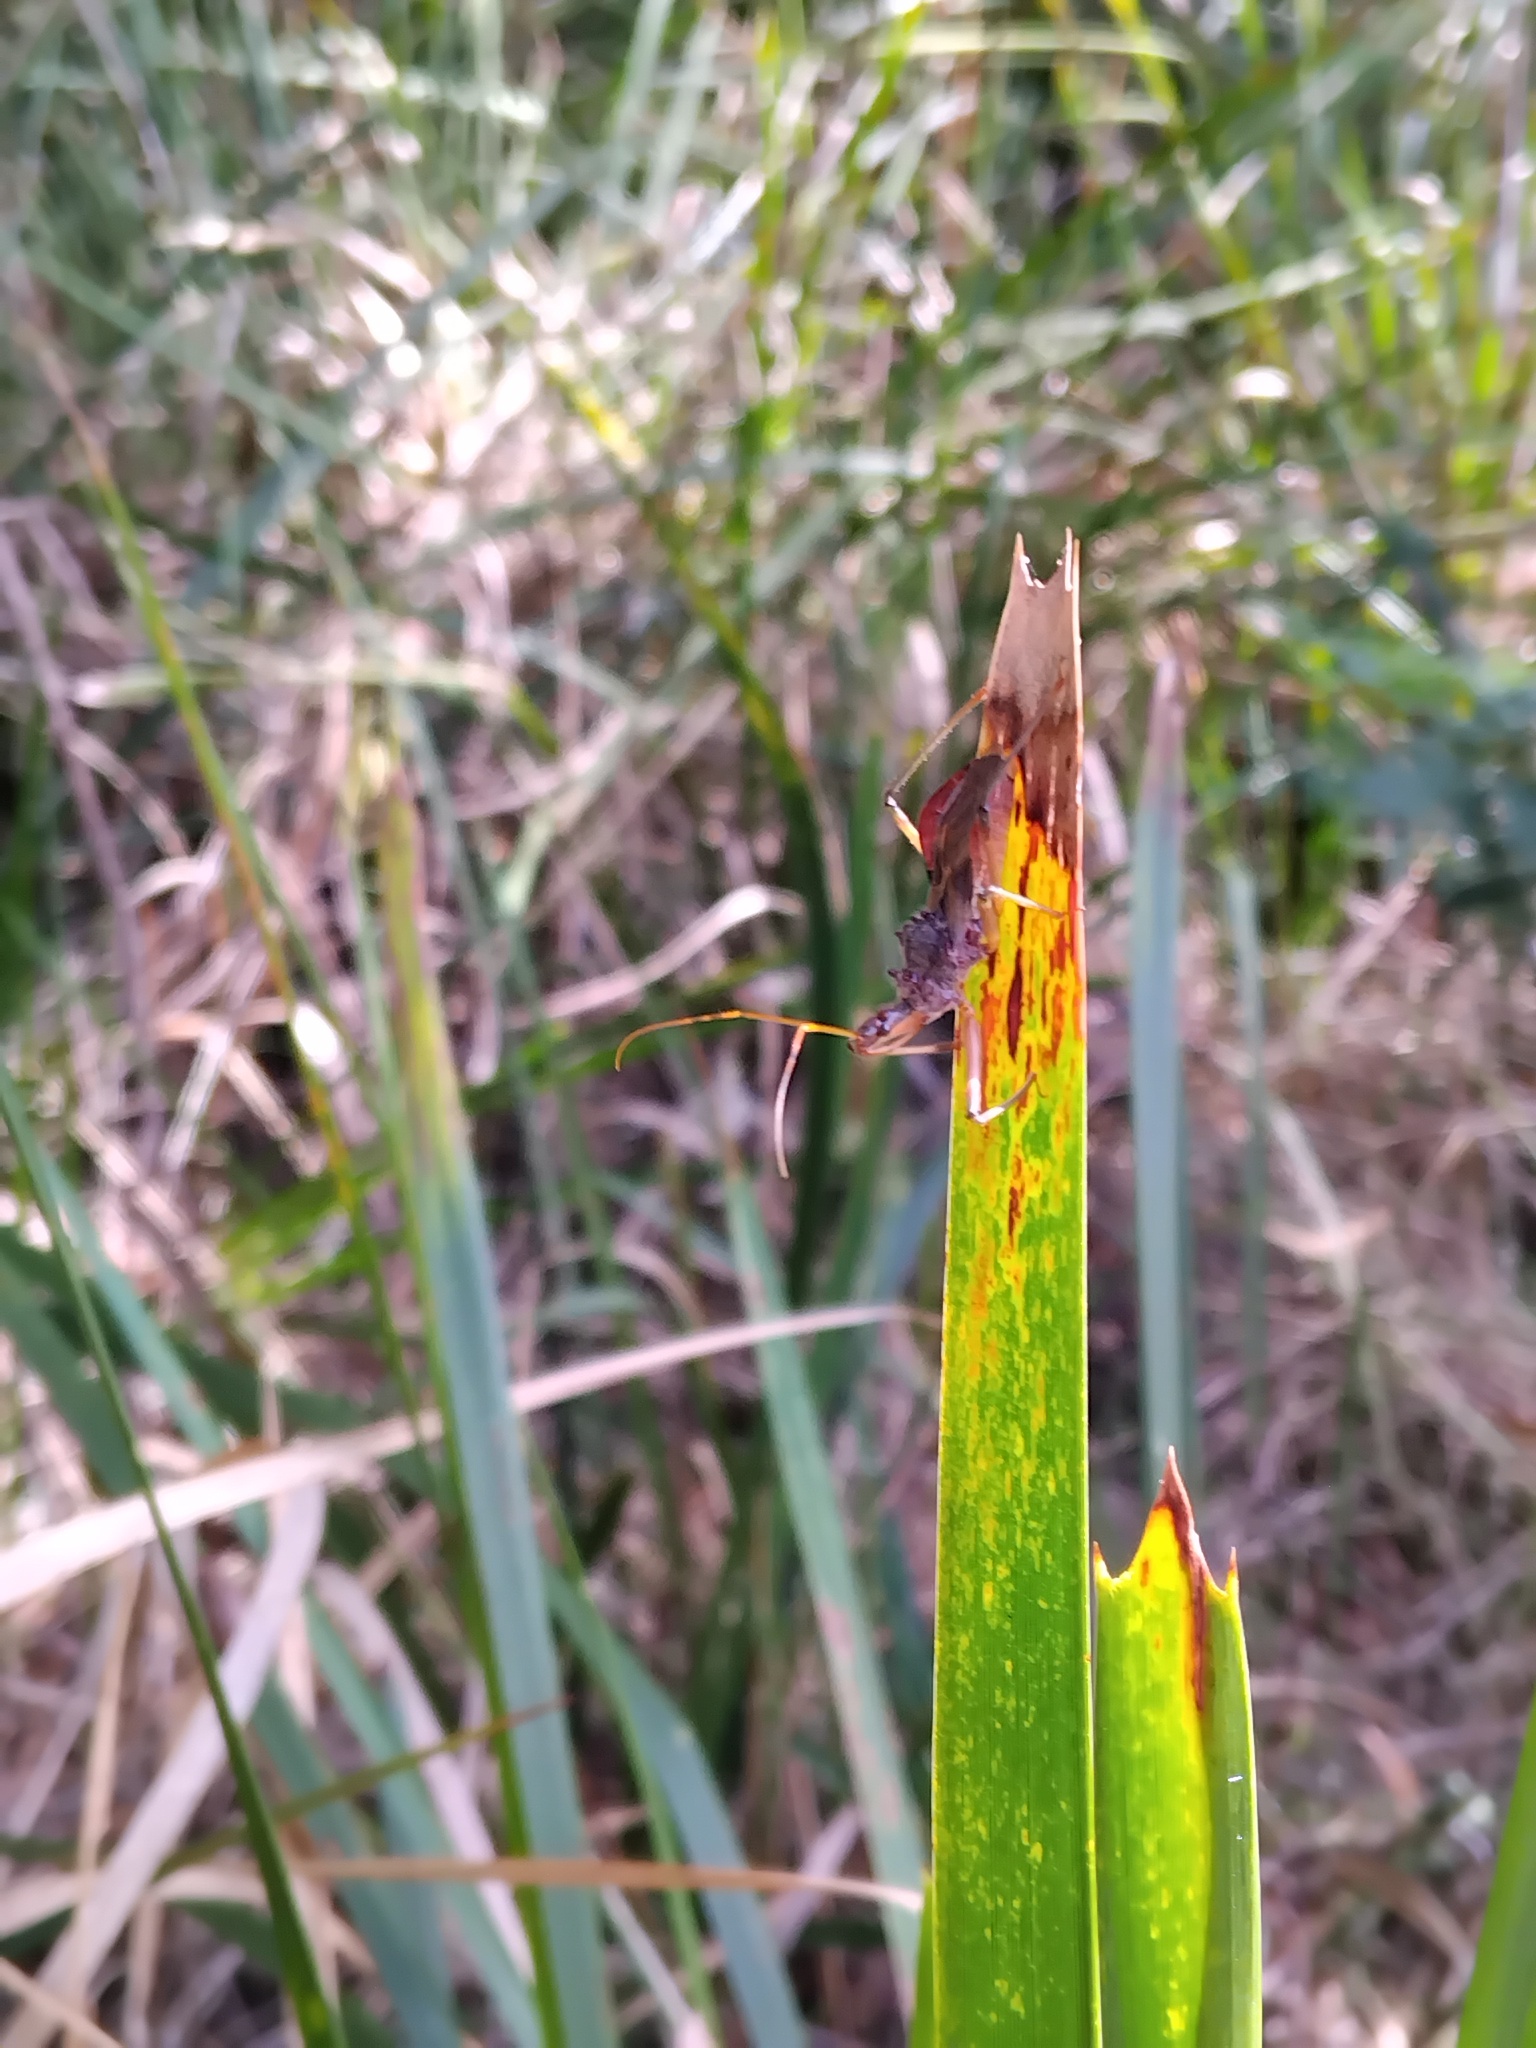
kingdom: Animalia
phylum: Arthropoda
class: Insecta
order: Hemiptera
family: Reduviidae
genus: Pristhesancus
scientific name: Pristhesancus plagipennis
